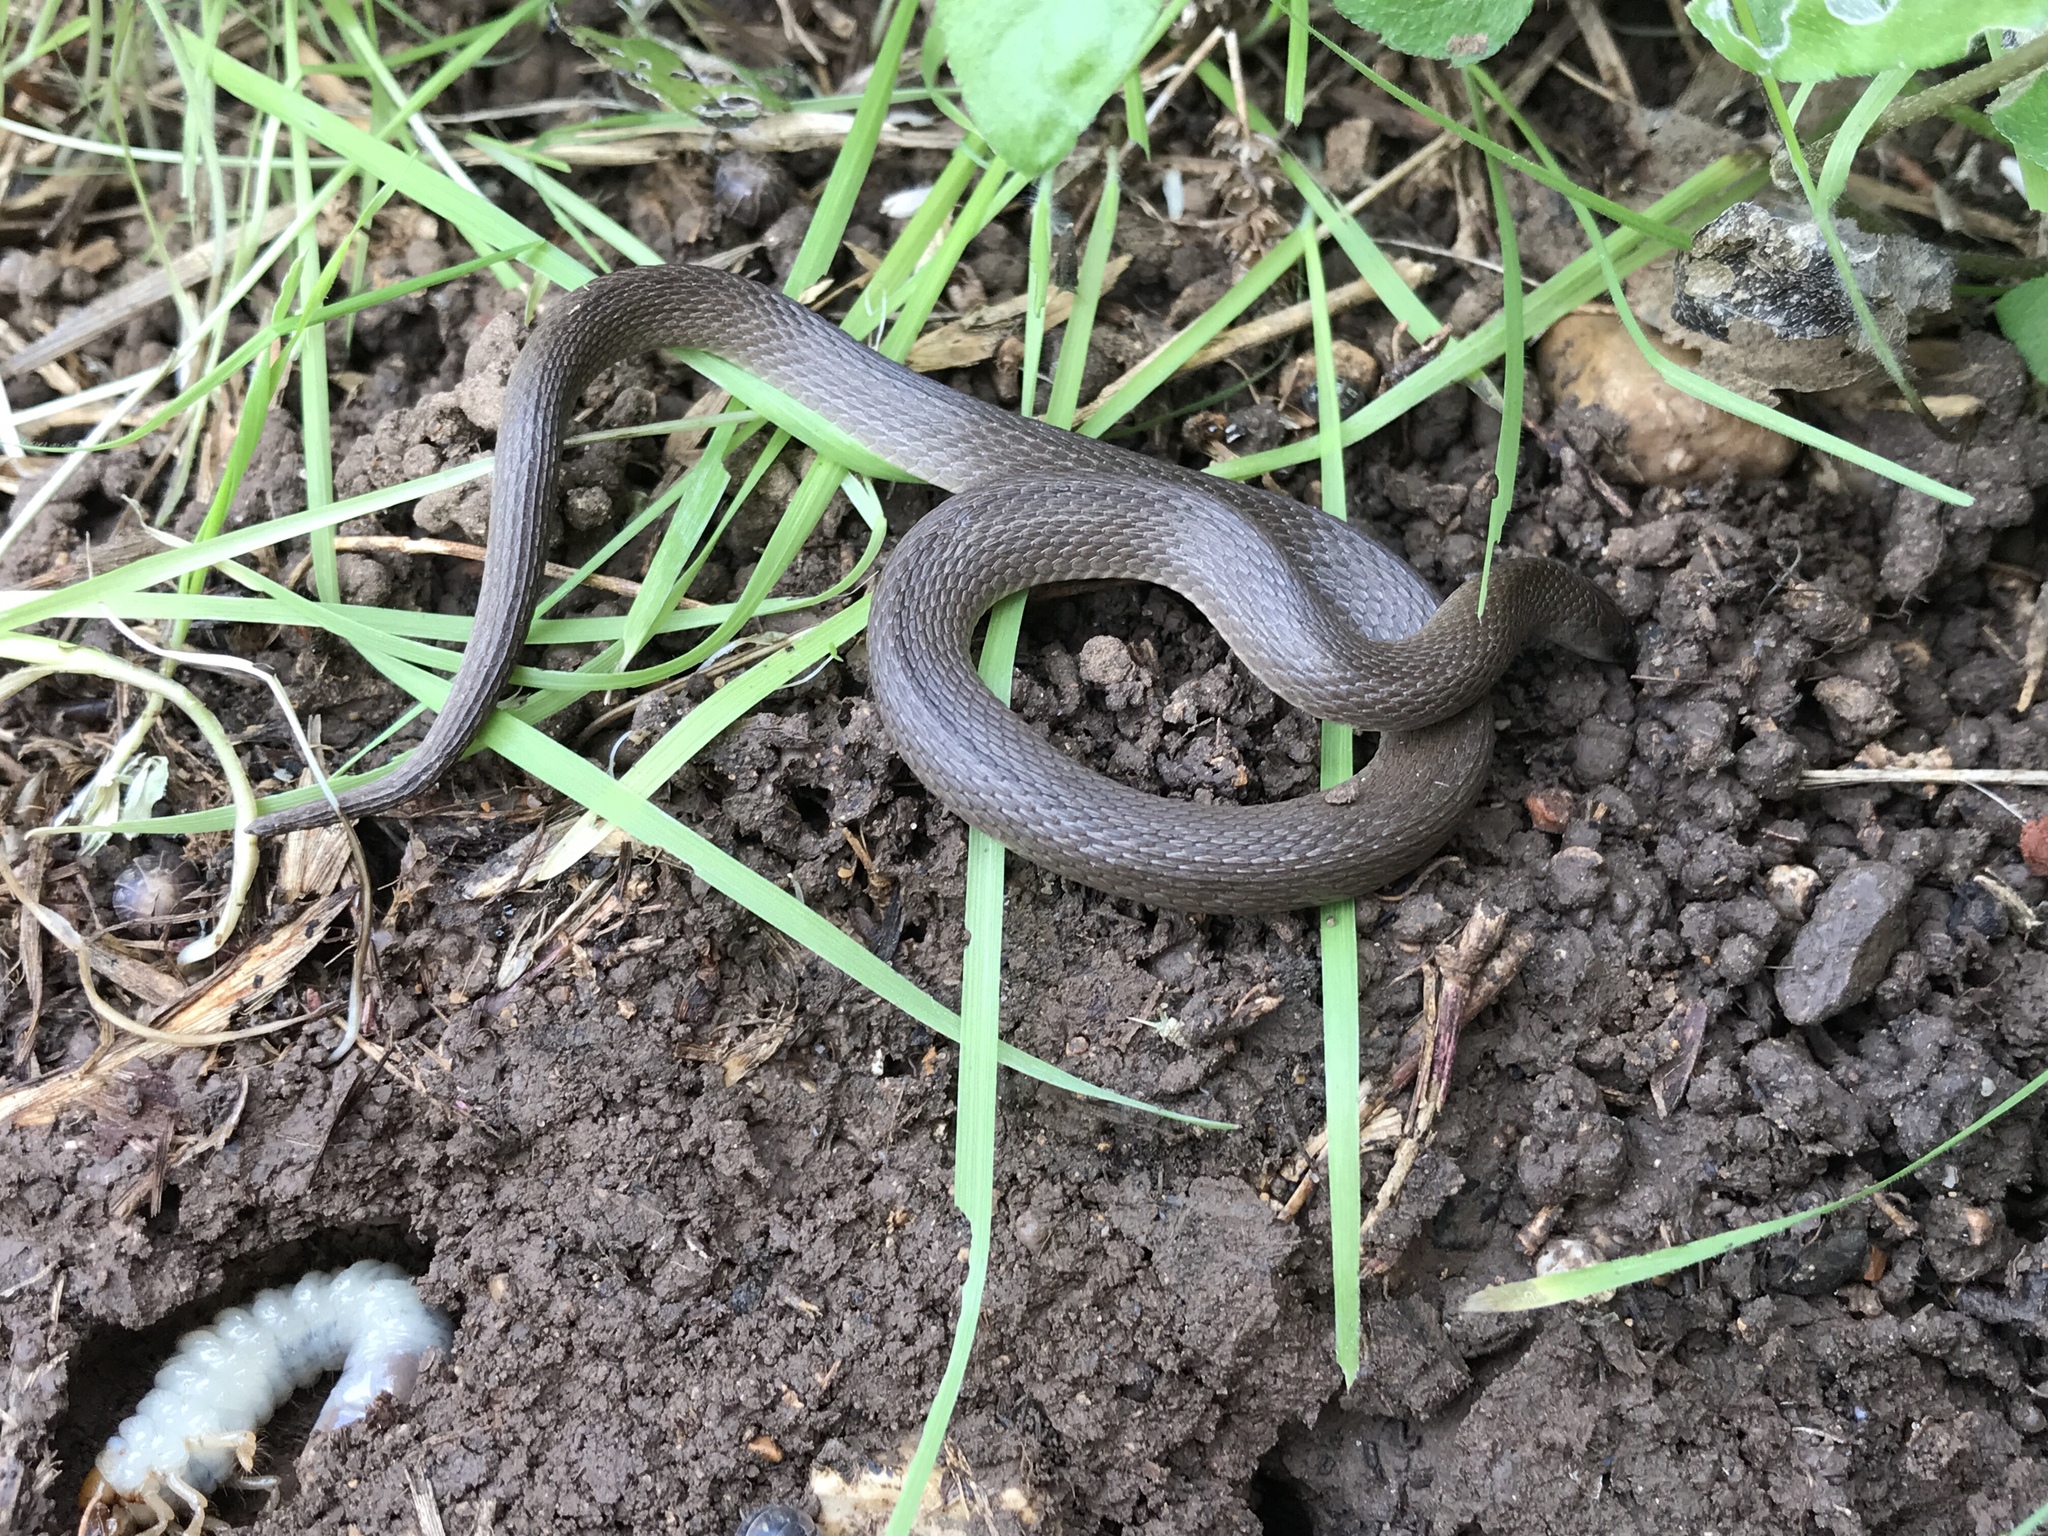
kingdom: Animalia
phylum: Chordata
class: Squamata
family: Colubridae
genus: Haldea
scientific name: Haldea striatula
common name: Rough earth snake
